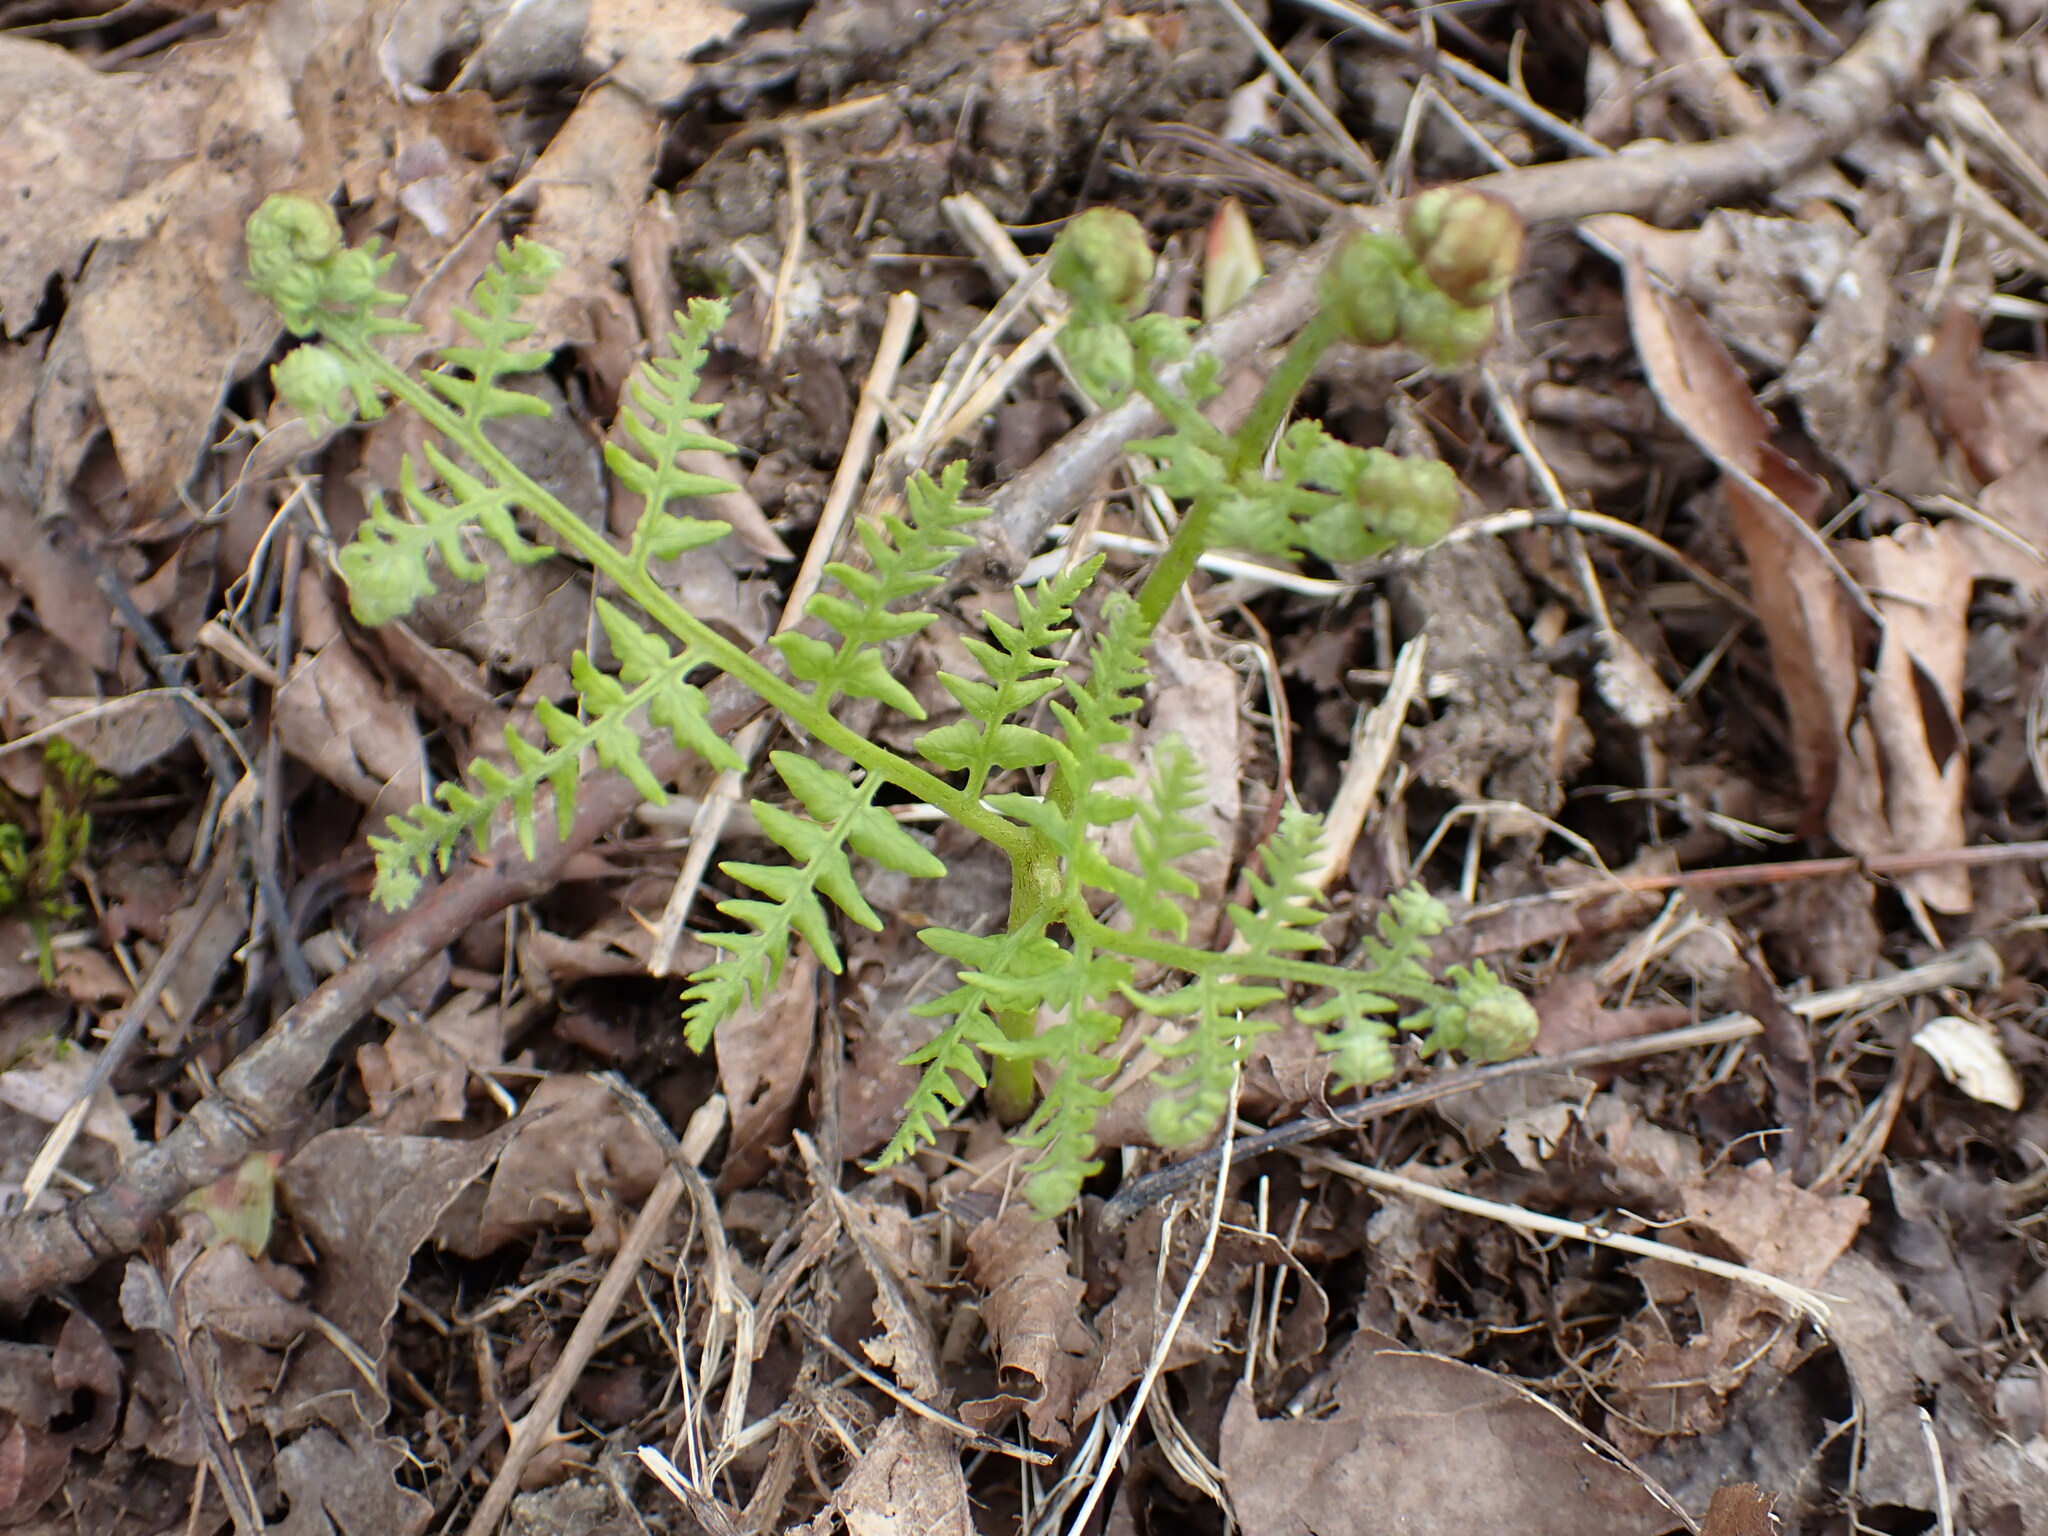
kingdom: Plantae
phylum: Tracheophyta
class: Polypodiopsida
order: Polypodiales
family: Dennstaedtiaceae
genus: Pteridium
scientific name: Pteridium aquilinum
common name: Bracken
